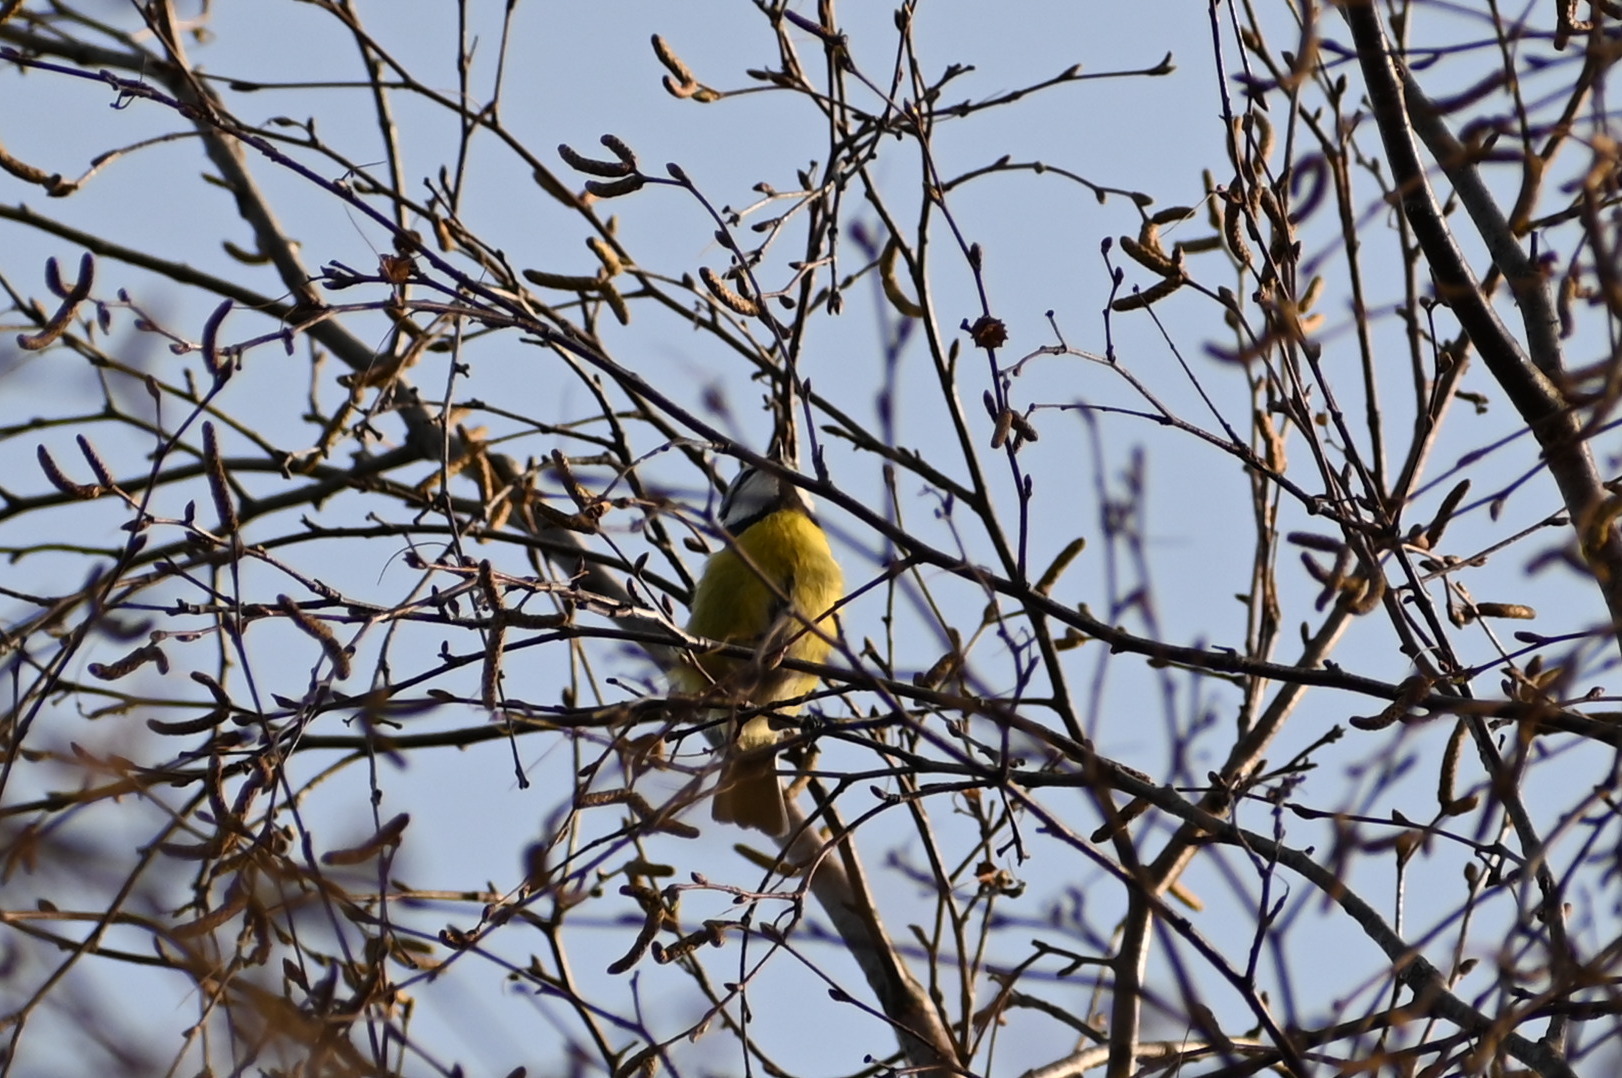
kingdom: Animalia
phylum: Chordata
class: Aves
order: Passeriformes
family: Paridae
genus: Cyanistes
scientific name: Cyanistes caeruleus
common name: Eurasian blue tit
